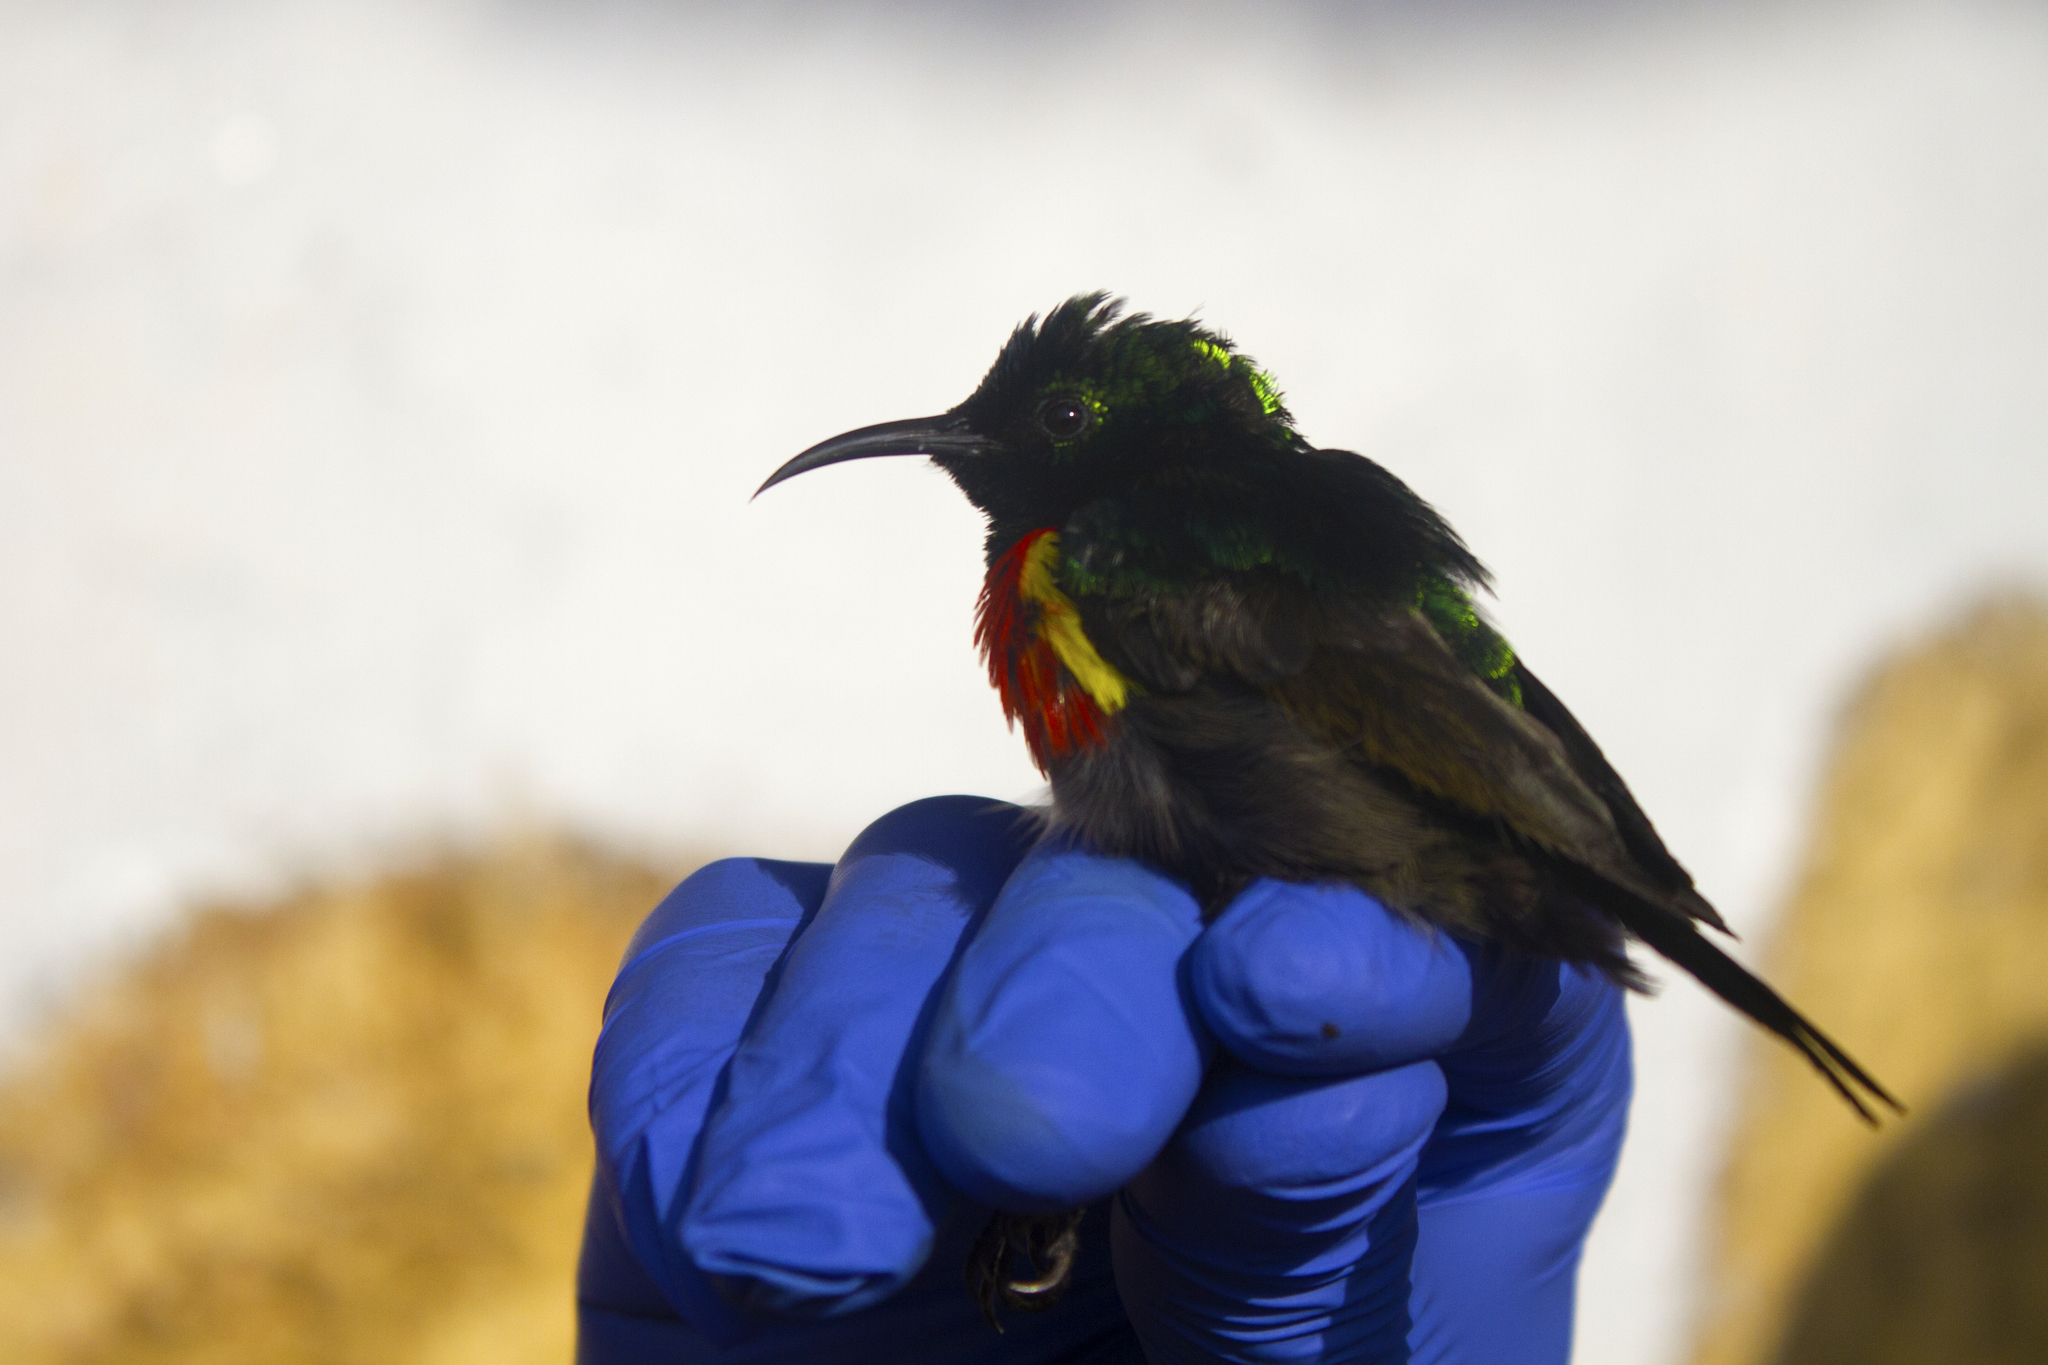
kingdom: Animalia
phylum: Chordata
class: Aves
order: Passeriformes
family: Nectariniidae
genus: Cinnyris
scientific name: Cinnyris reichenowi
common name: Northern double-collared sunbird
